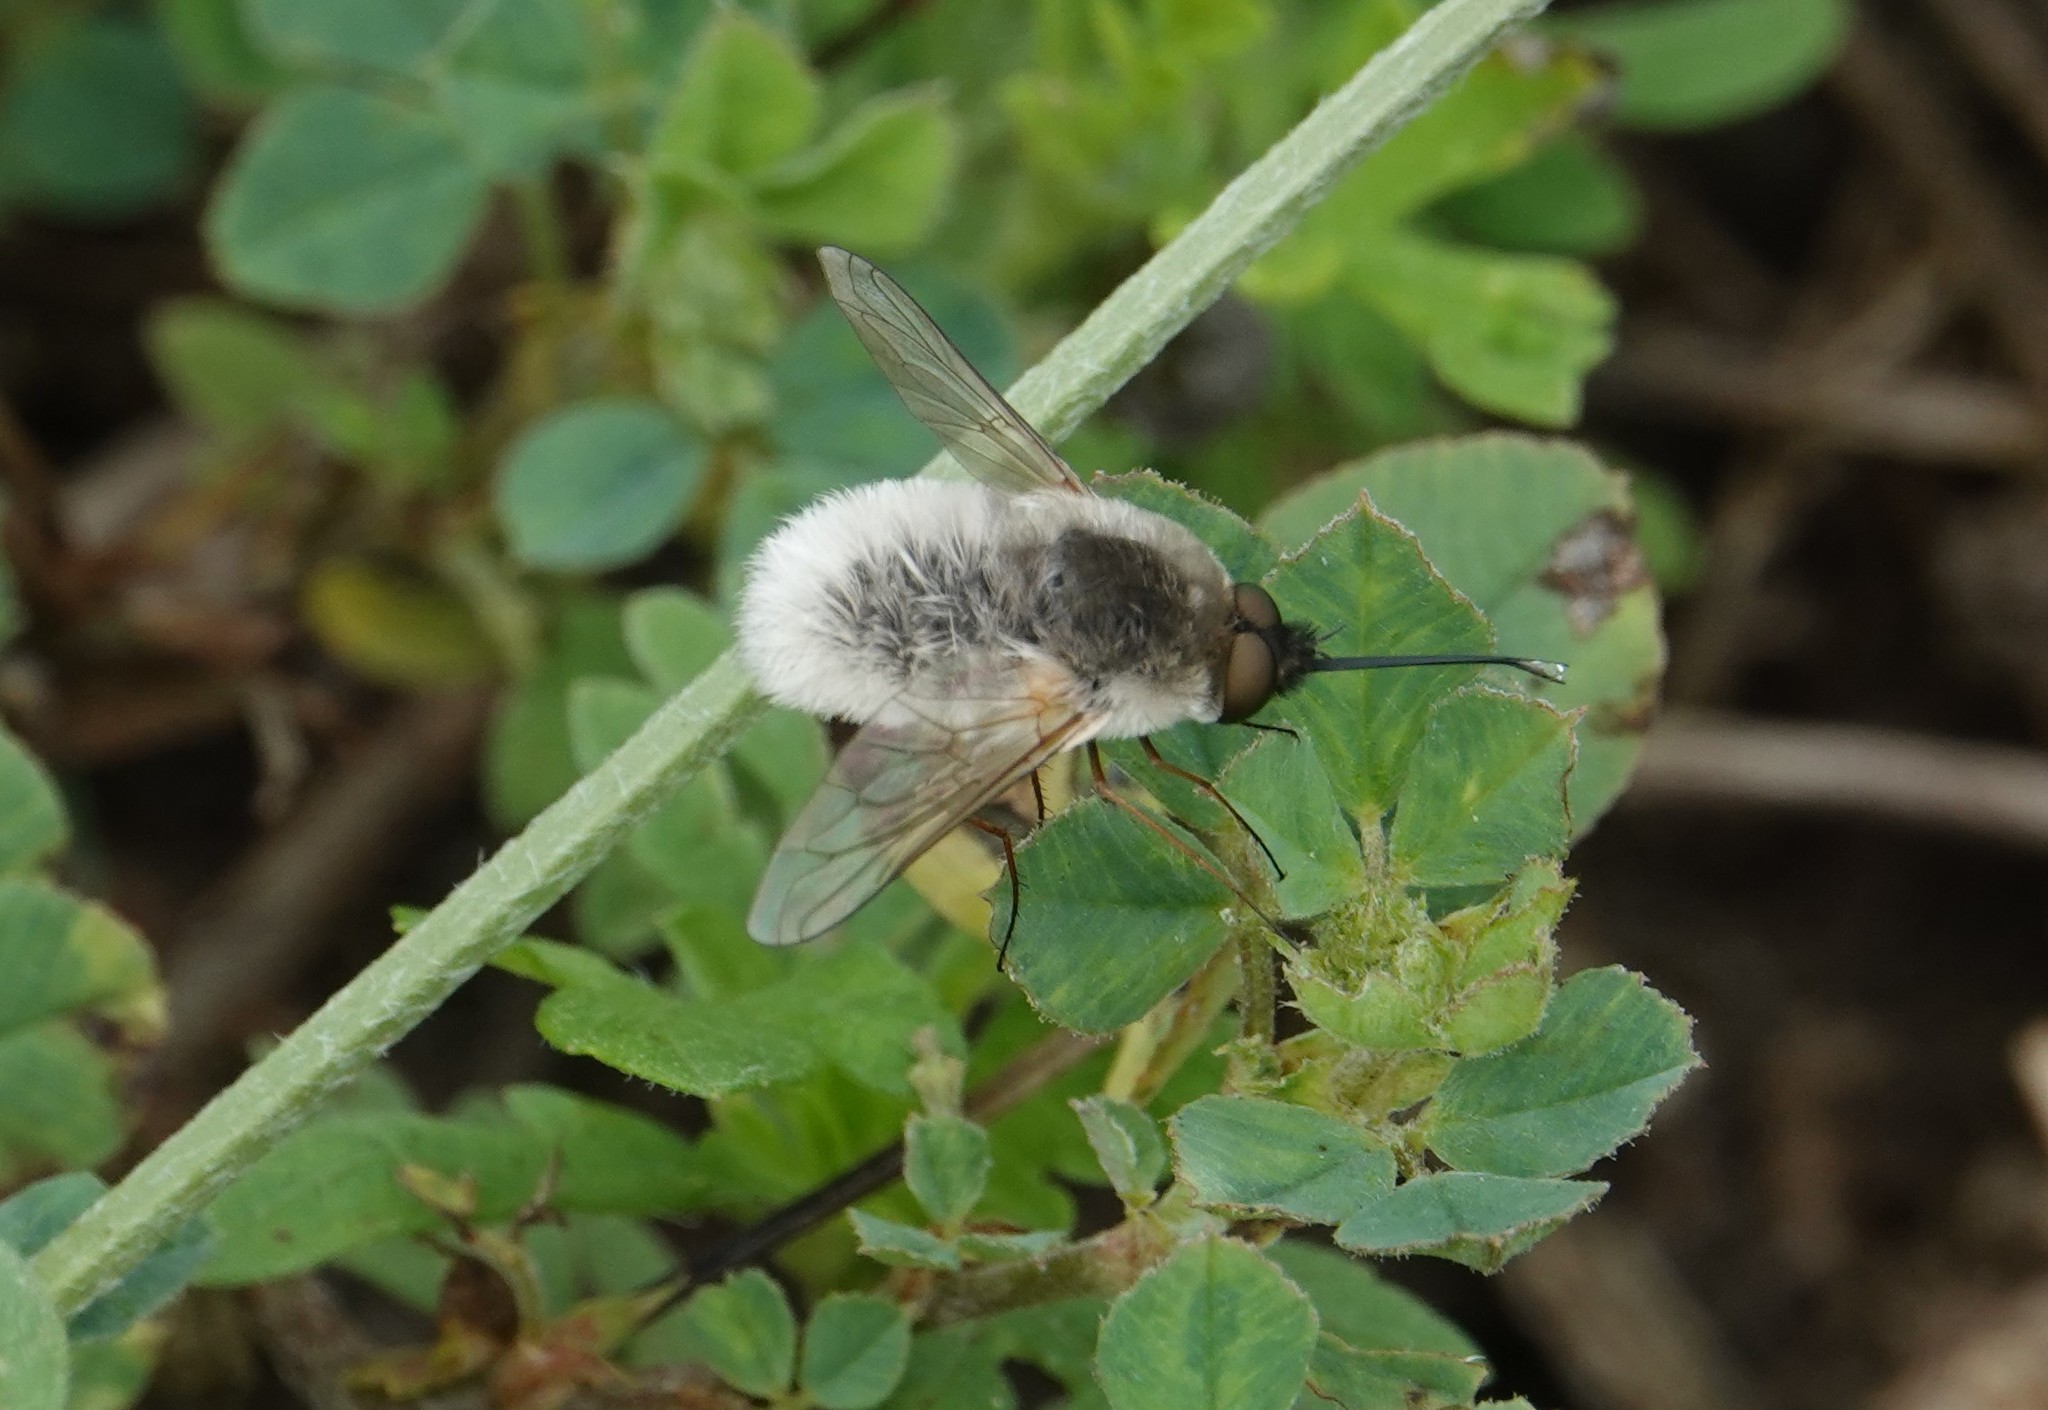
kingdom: Animalia
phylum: Arthropoda
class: Insecta
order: Diptera
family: Bombyliidae
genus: Systoechus
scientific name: Systoechus candidulus
